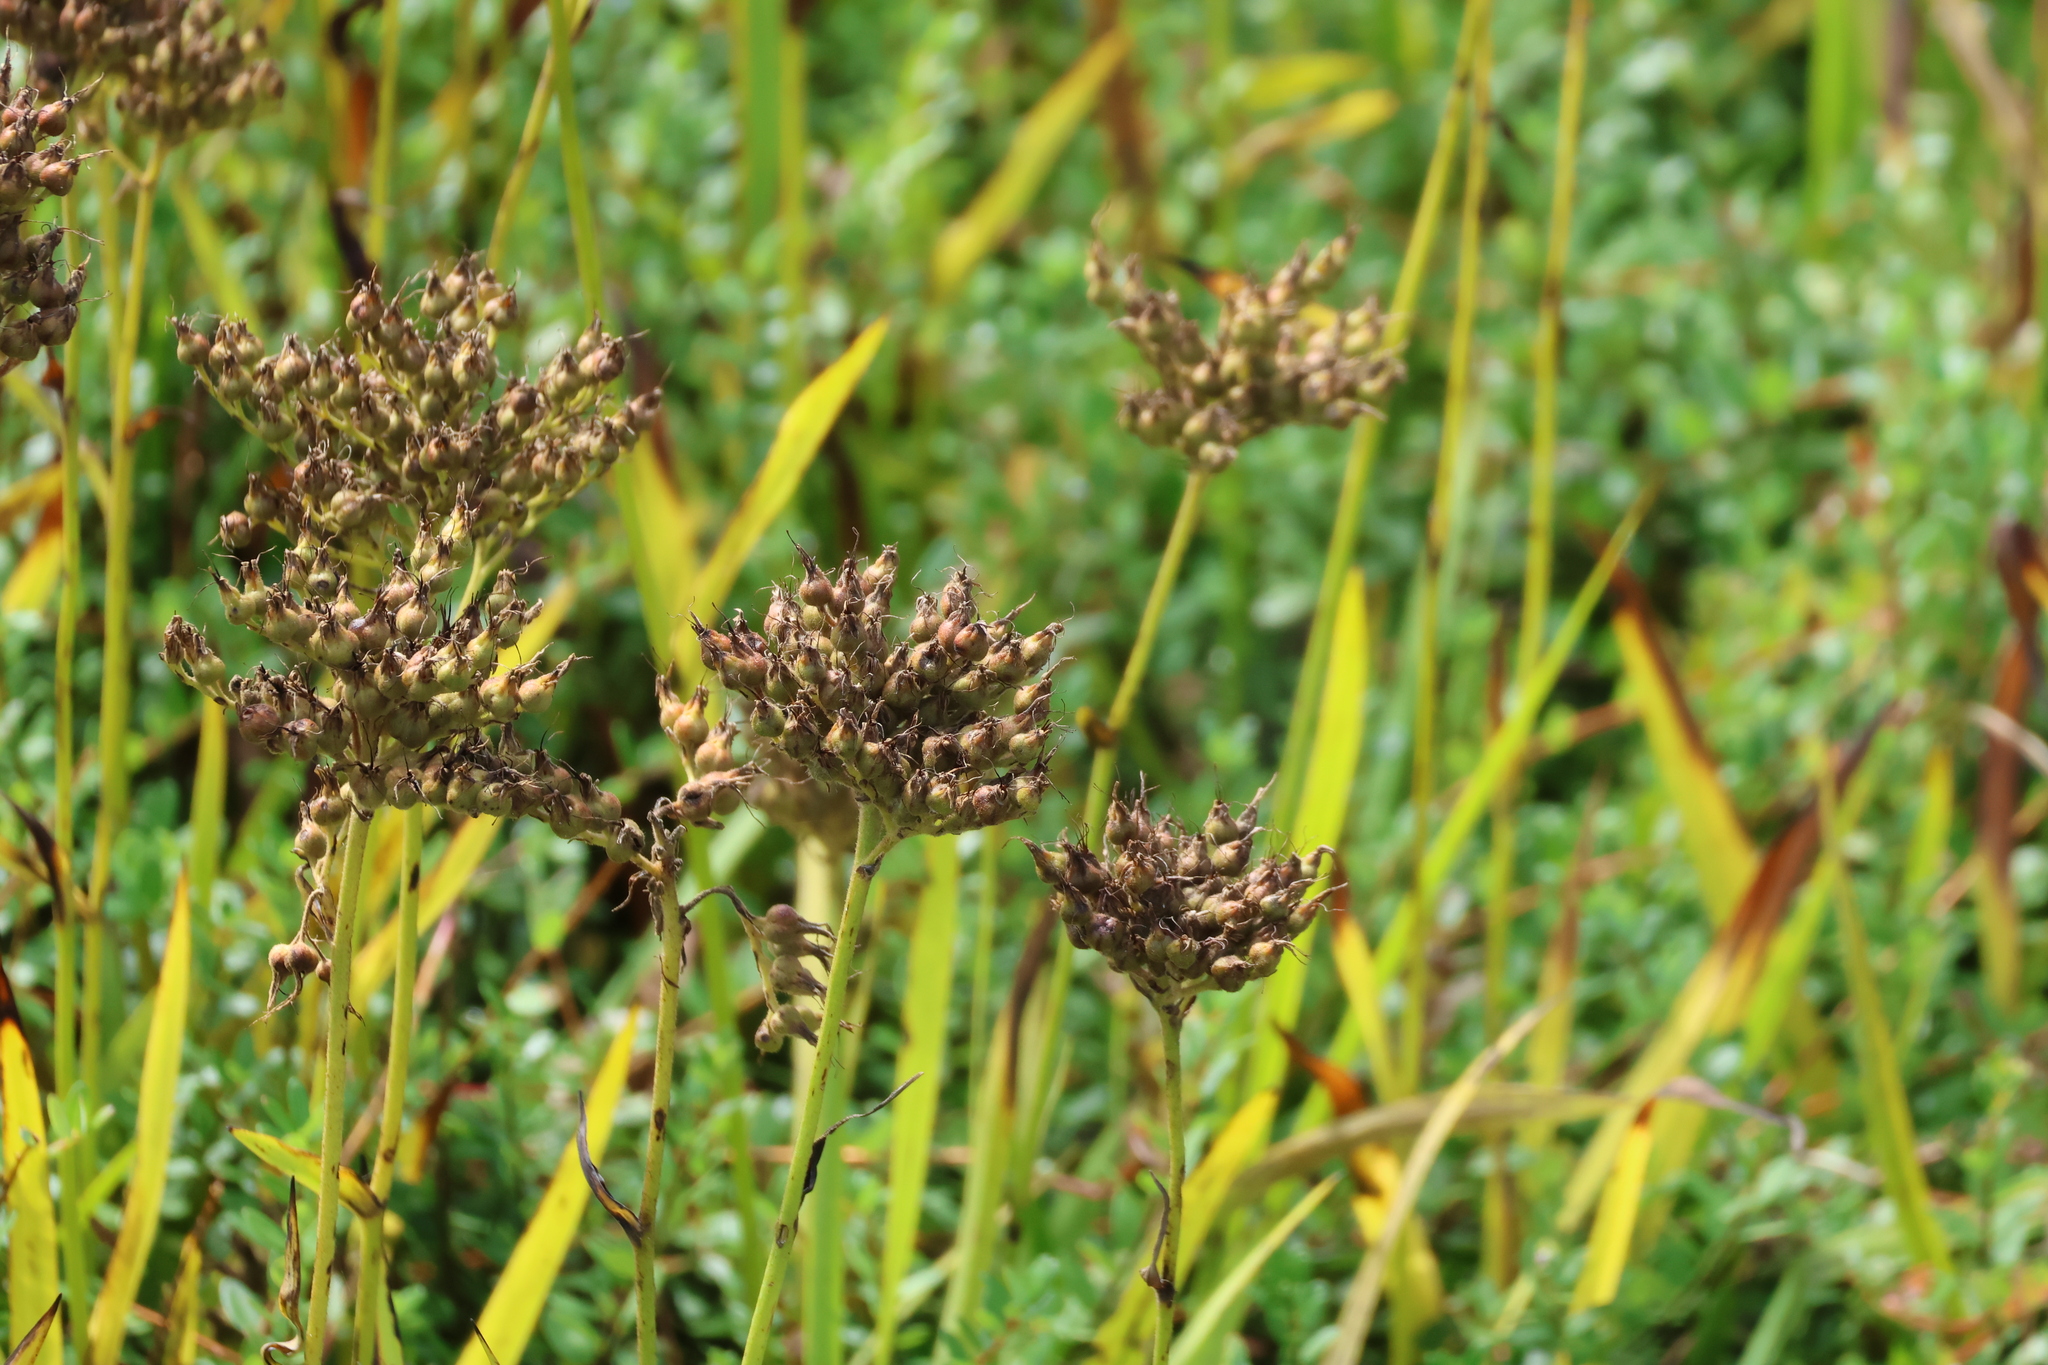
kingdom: Plantae
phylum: Tracheophyta
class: Liliopsida
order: Commelinales
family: Haemodoraceae
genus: Lachnanthes
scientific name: Lachnanthes caroliana
